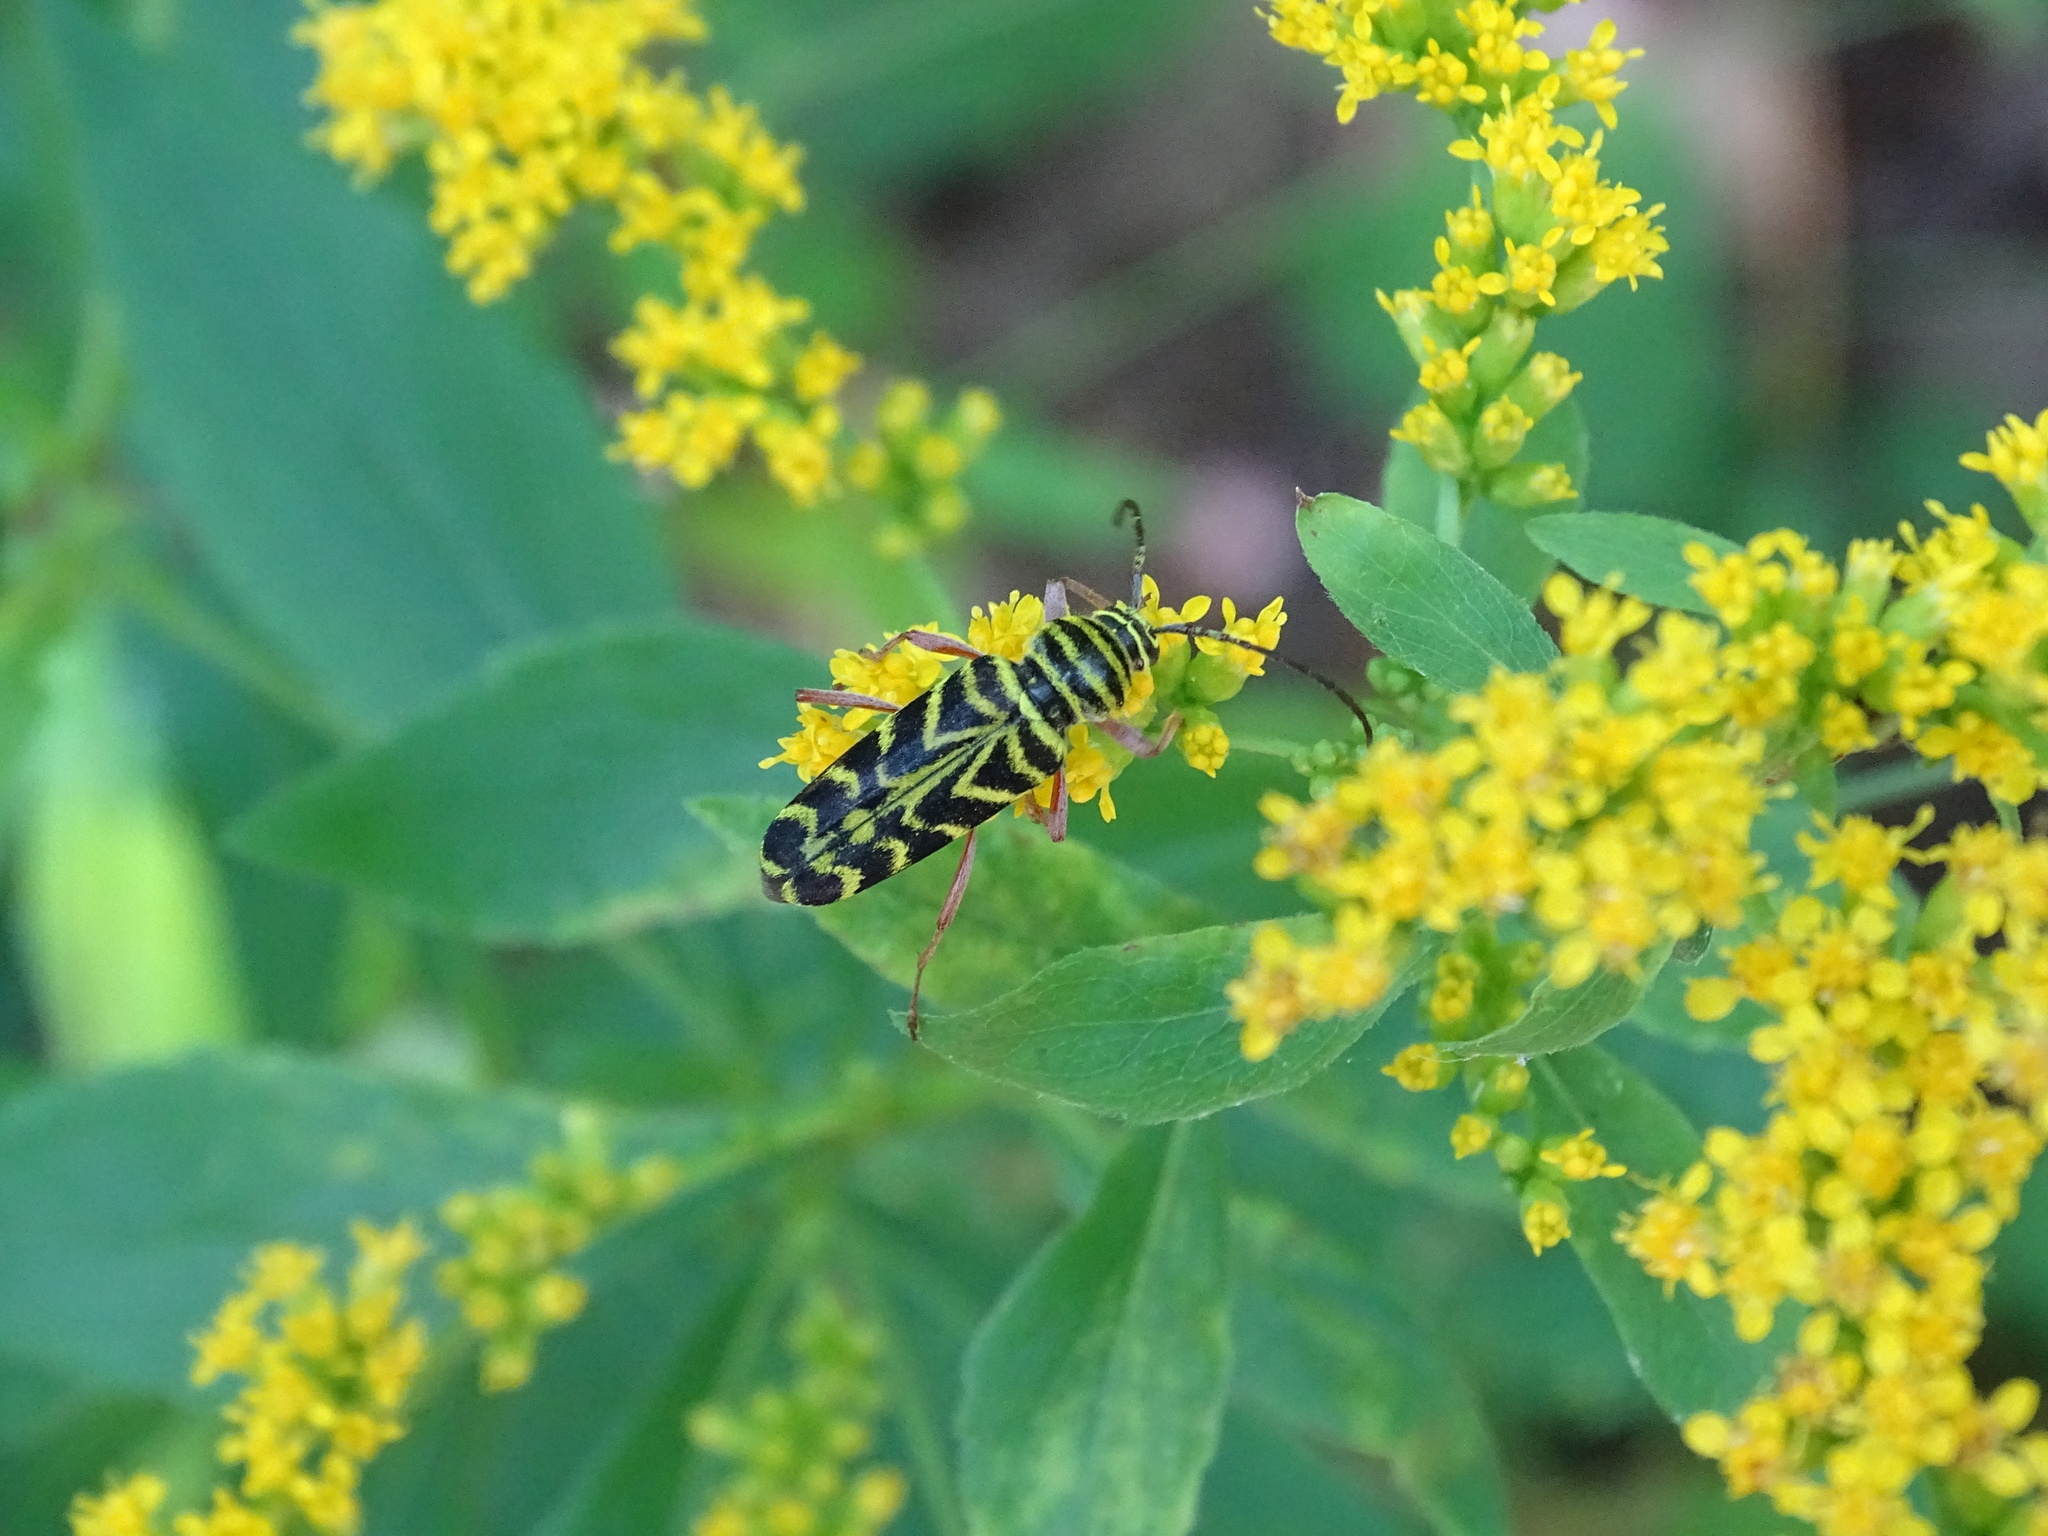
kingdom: Animalia
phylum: Arthropoda
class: Insecta
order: Coleoptera
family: Cerambycidae
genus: Megacyllene
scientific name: Megacyllene robiniae
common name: Locust borer
